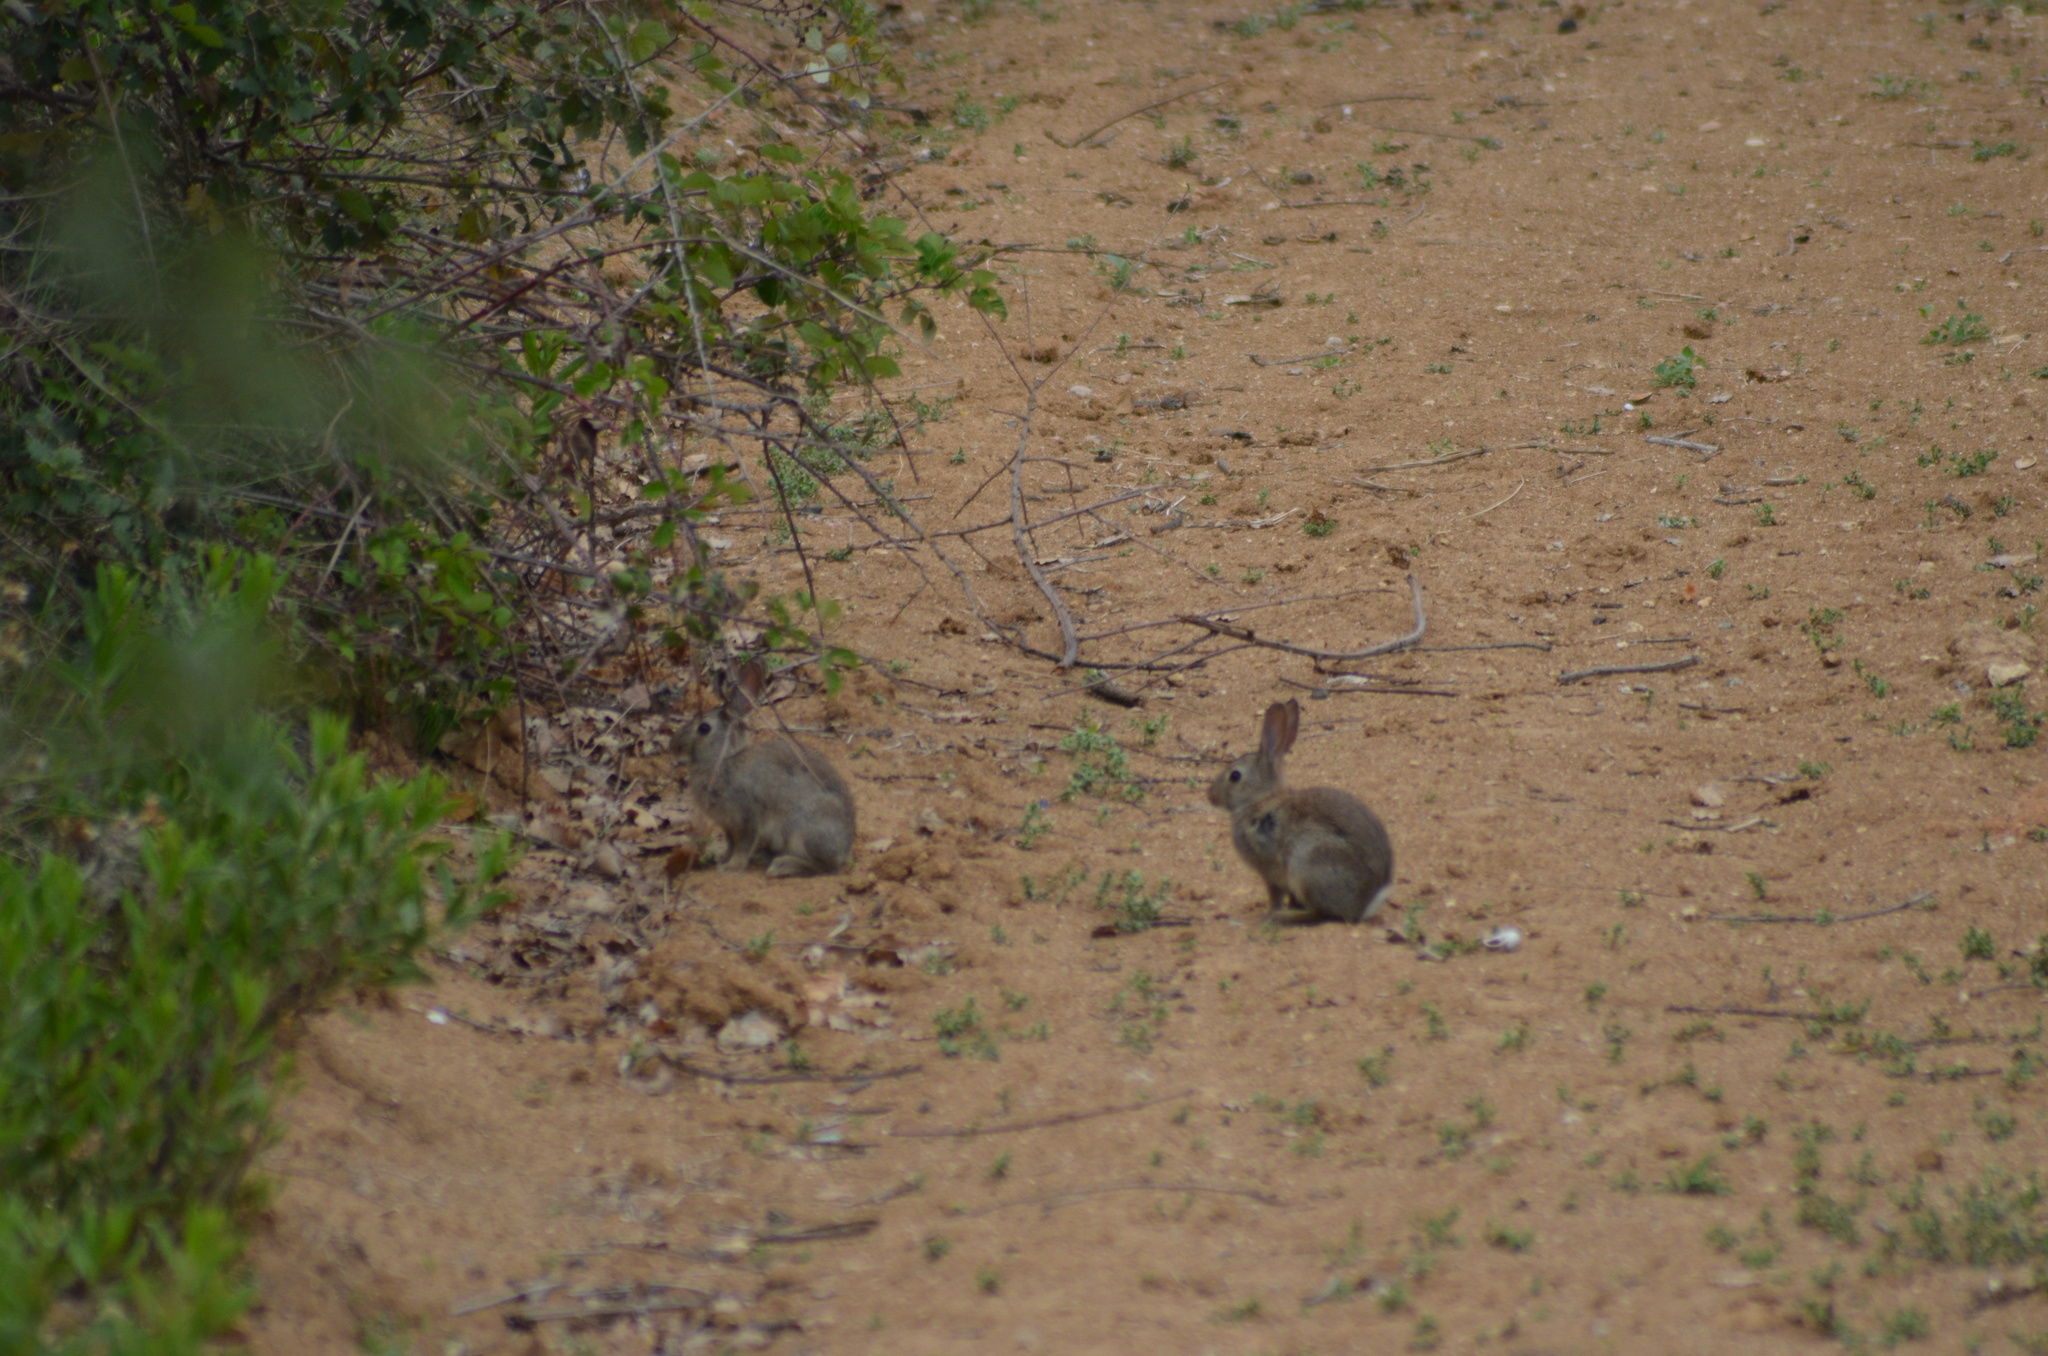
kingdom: Animalia
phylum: Chordata
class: Mammalia
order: Lagomorpha
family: Leporidae
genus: Oryctolagus
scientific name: Oryctolagus cuniculus
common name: European rabbit
